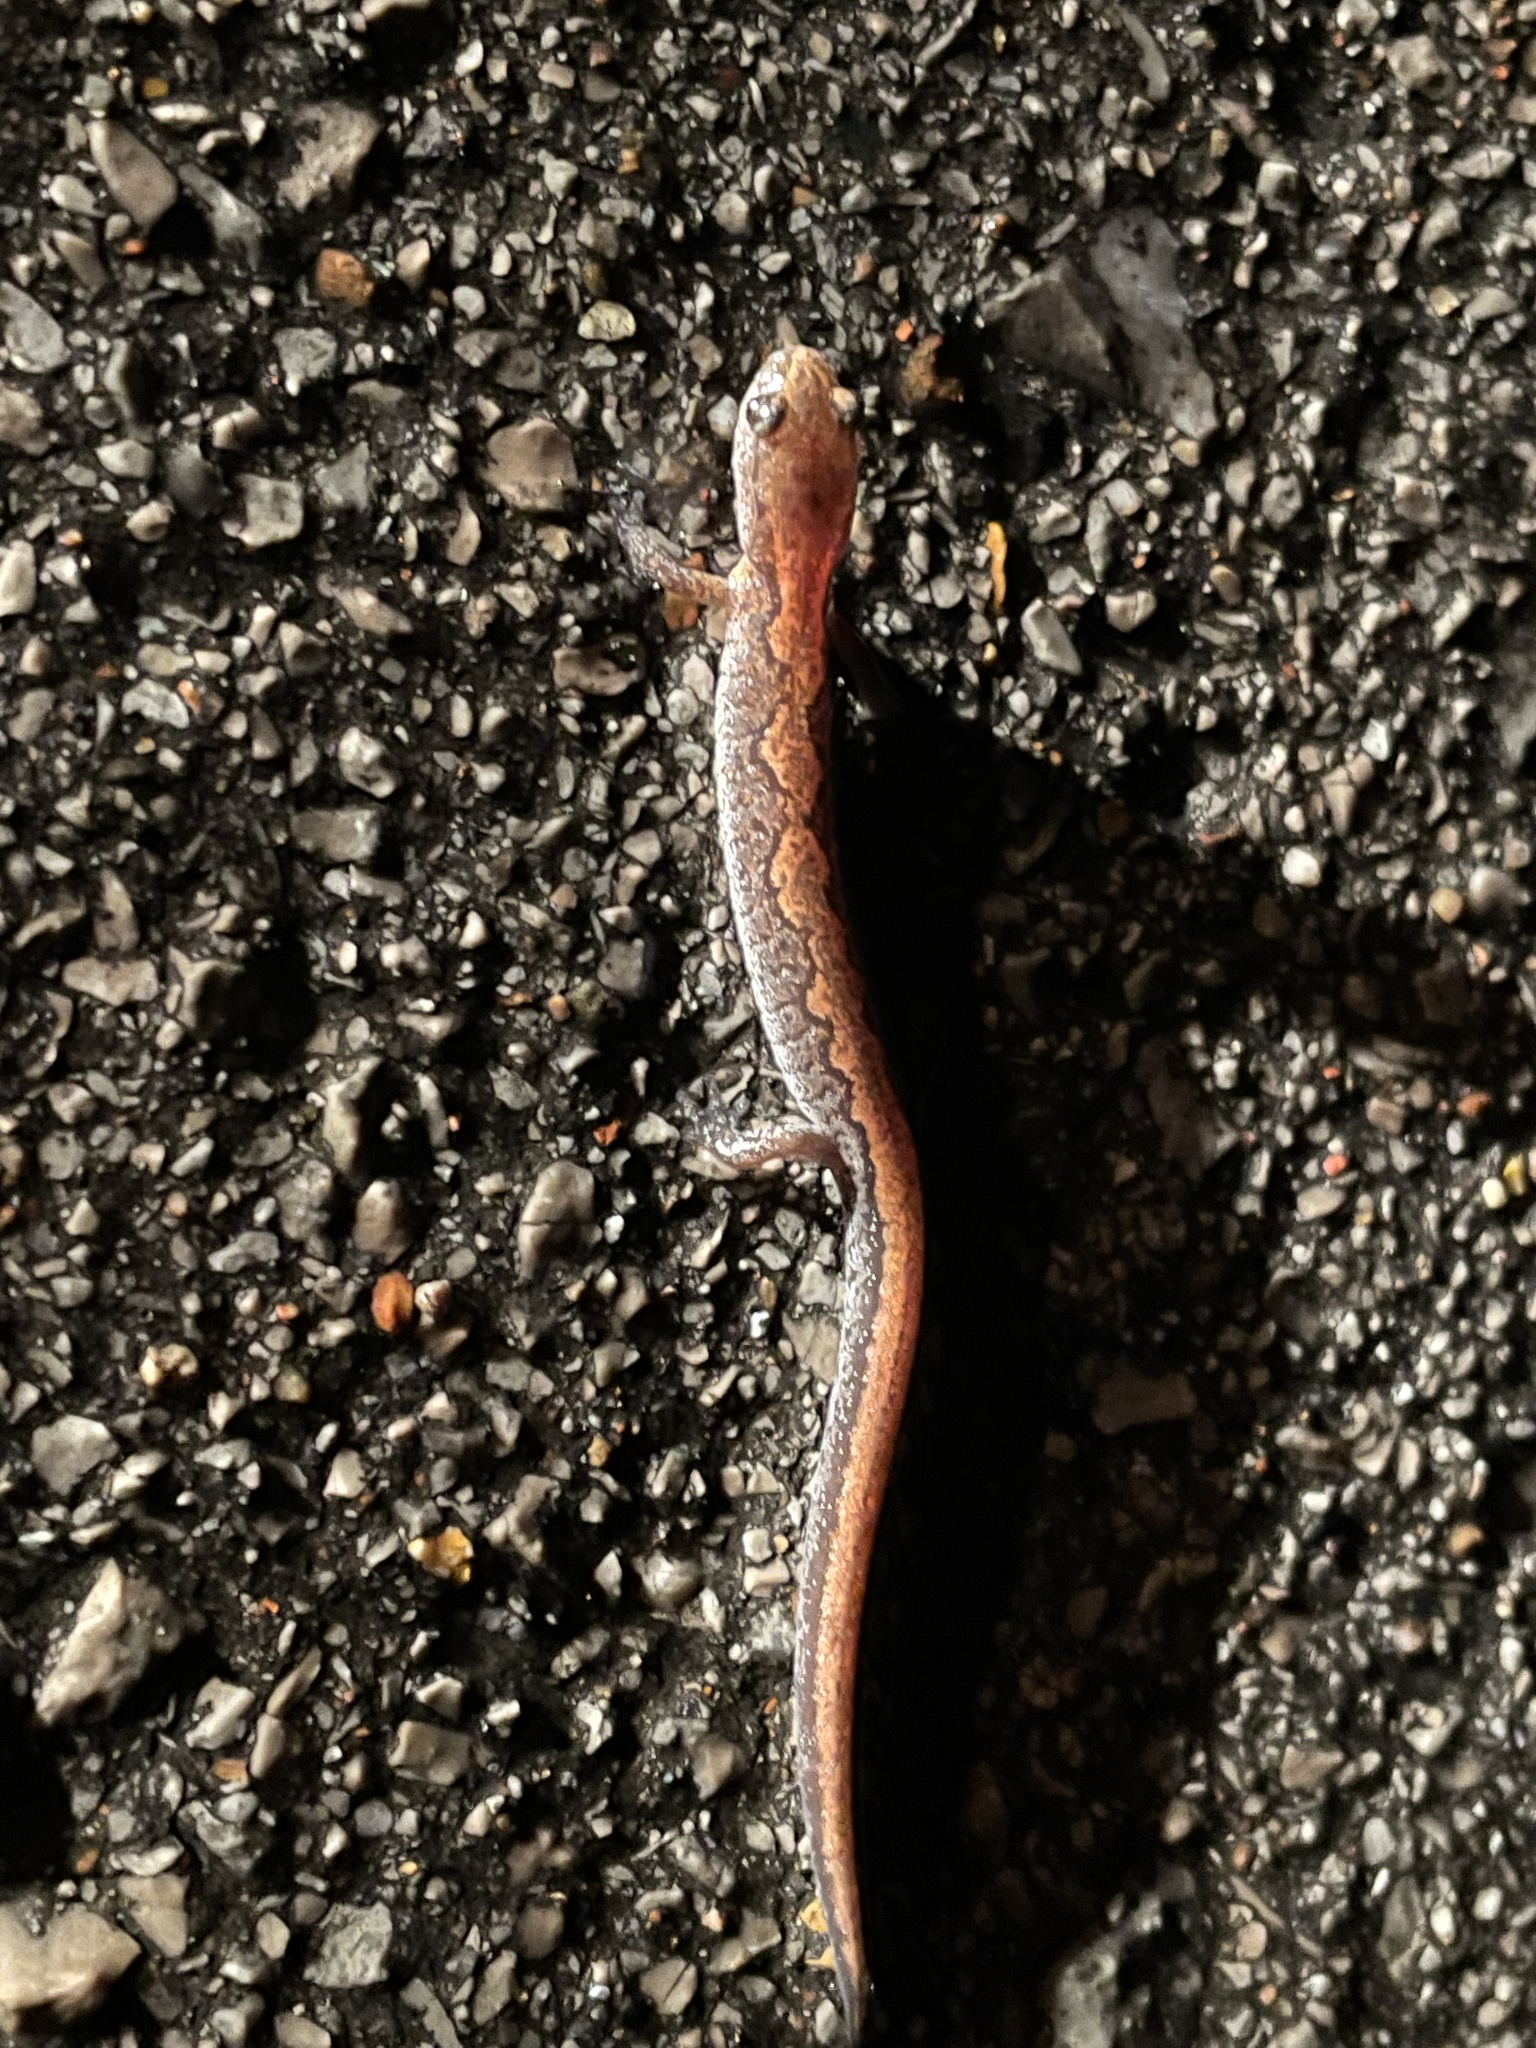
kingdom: Animalia
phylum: Chordata
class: Amphibia
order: Caudata
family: Plethodontidae
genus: Plethodon
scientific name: Plethodon dorsalis
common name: Northern zigzag salamander
